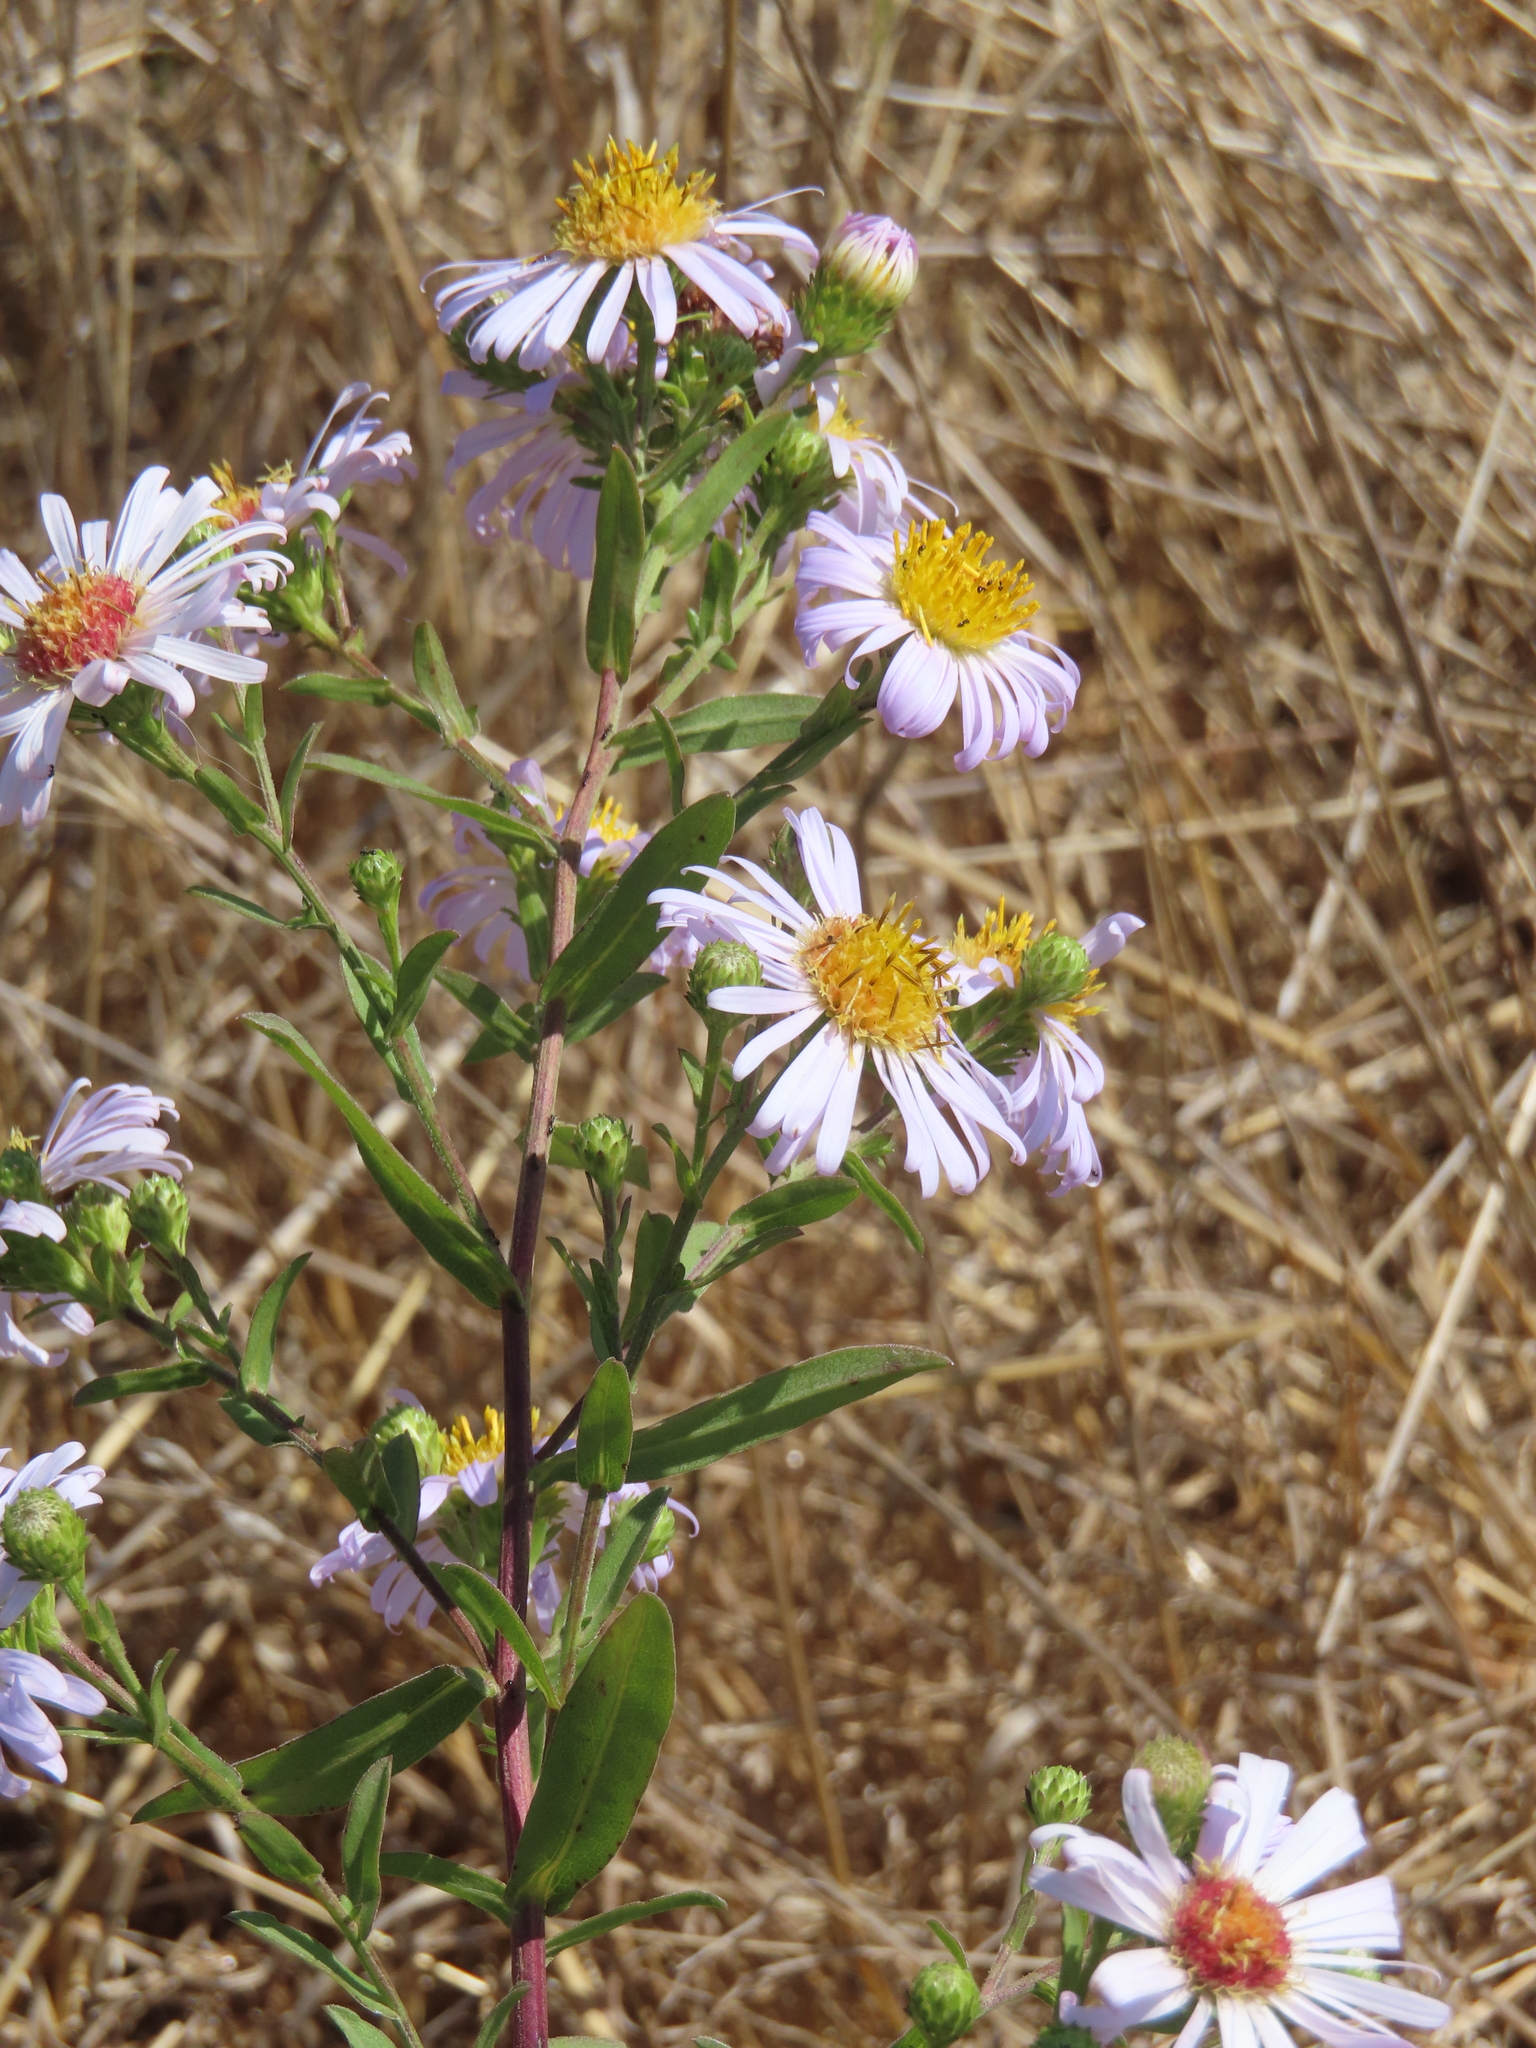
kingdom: Plantae
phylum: Tracheophyta
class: Magnoliopsida
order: Asterales
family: Asteraceae
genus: Symphyotrichum
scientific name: Symphyotrichum chilense
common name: Pacific aster
